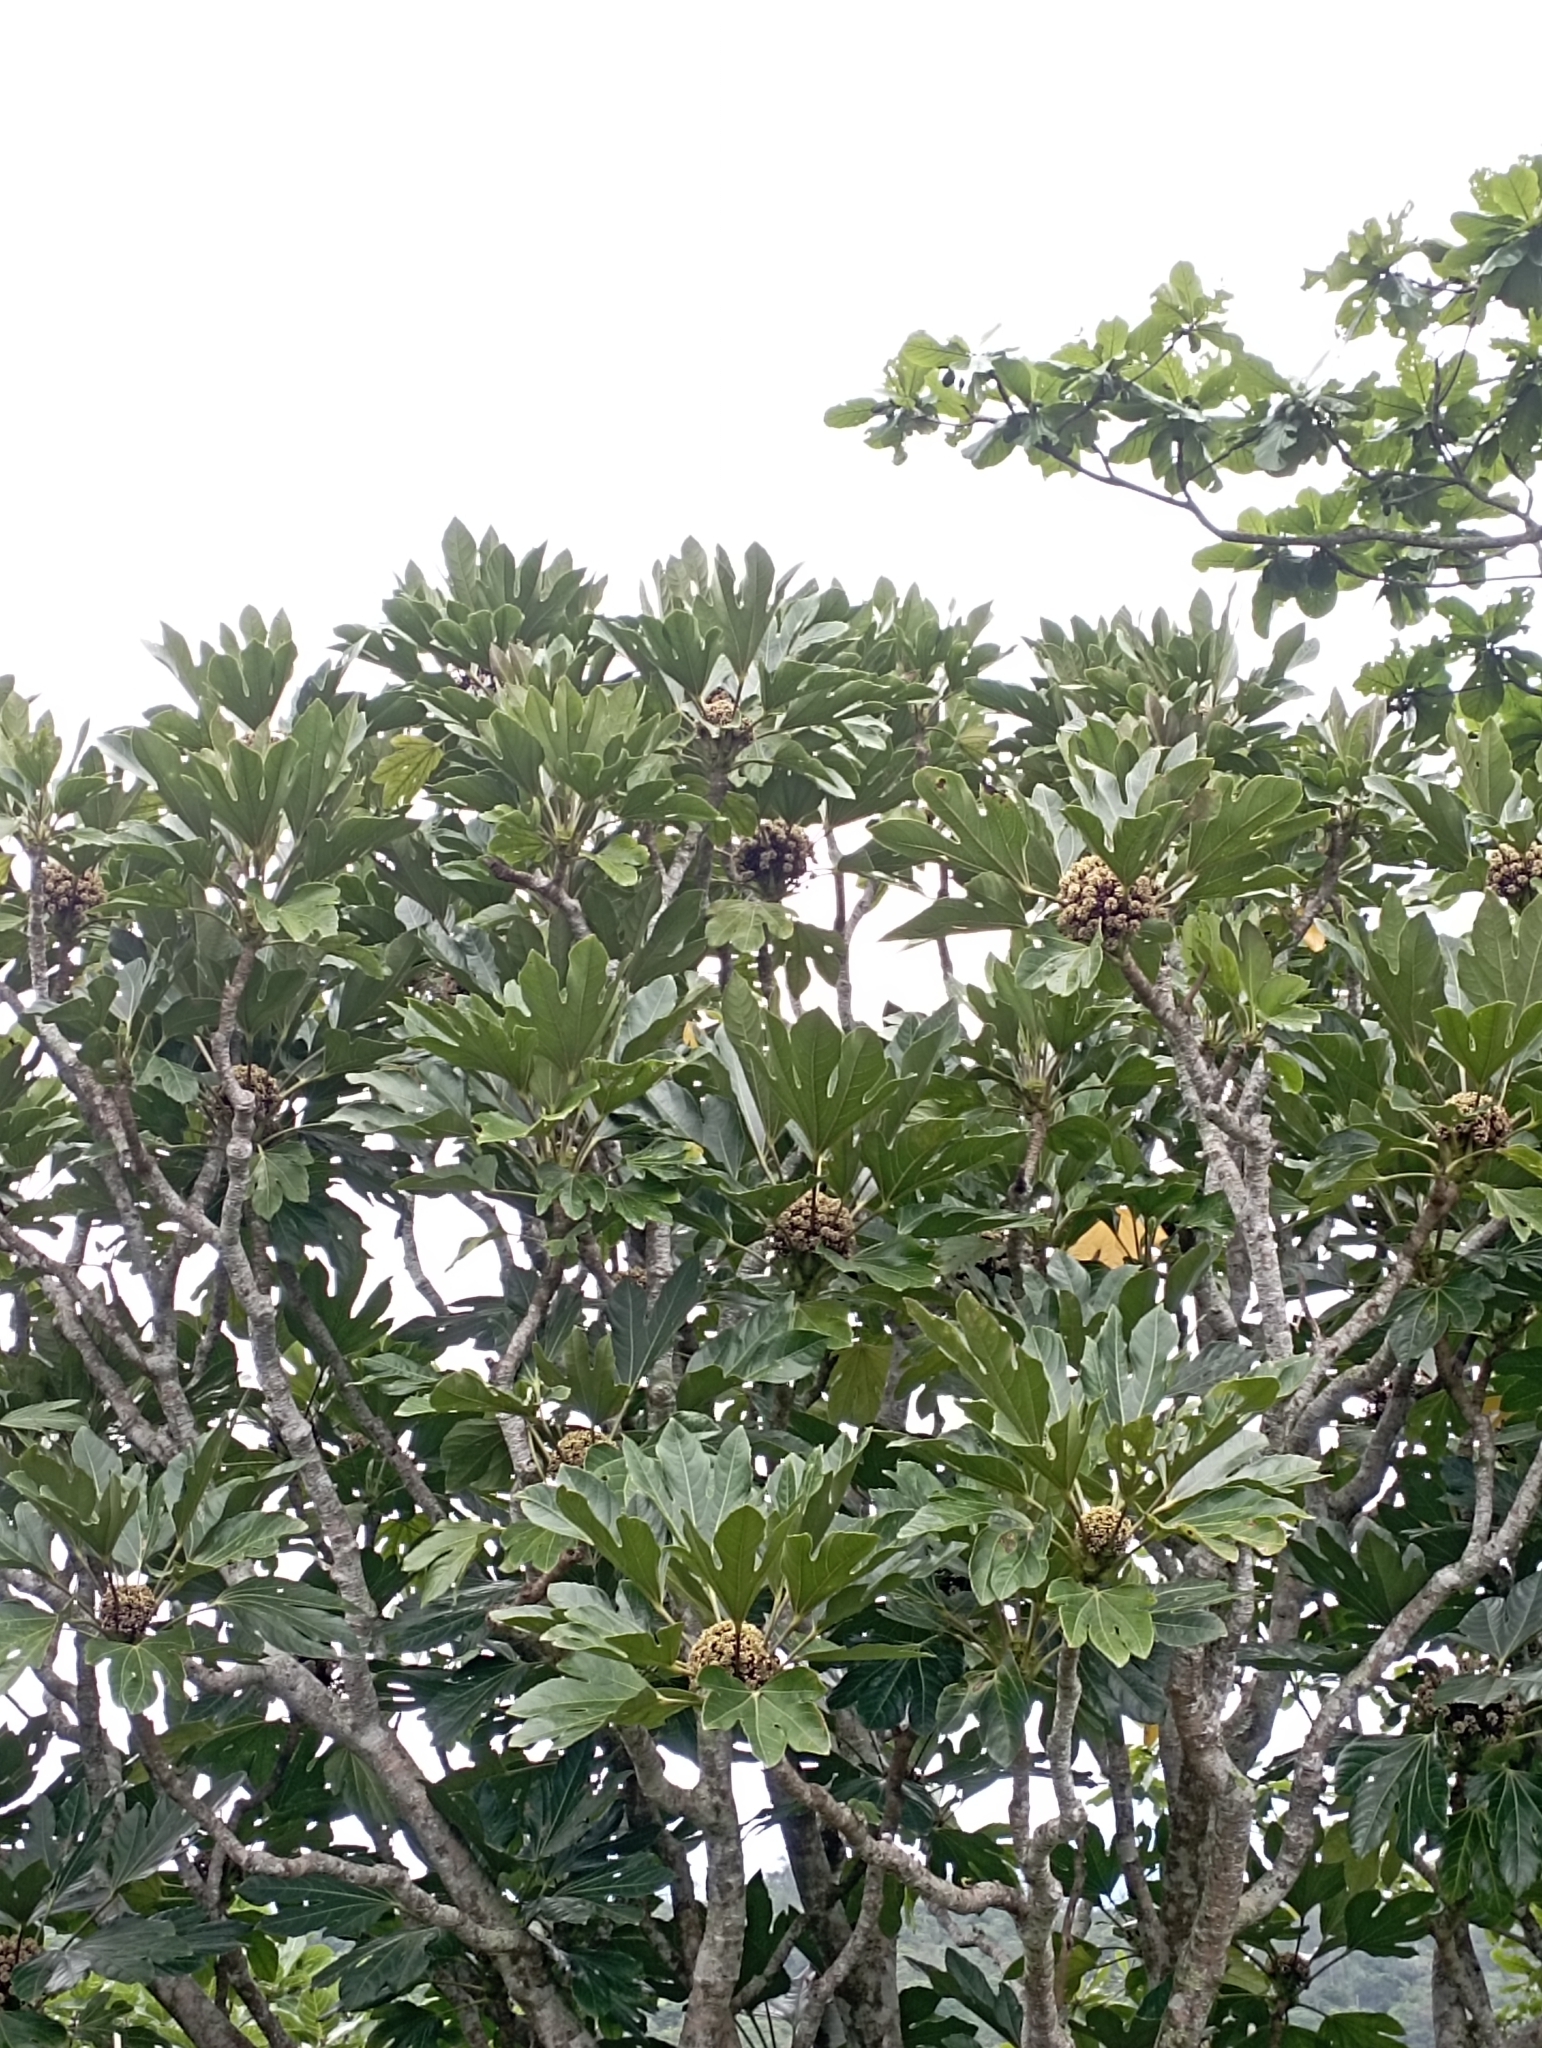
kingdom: Plantae
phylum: Tracheophyta
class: Magnoliopsida
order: Apiales
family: Araliaceae
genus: Osmoxylon
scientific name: Osmoxylon pectinatum
